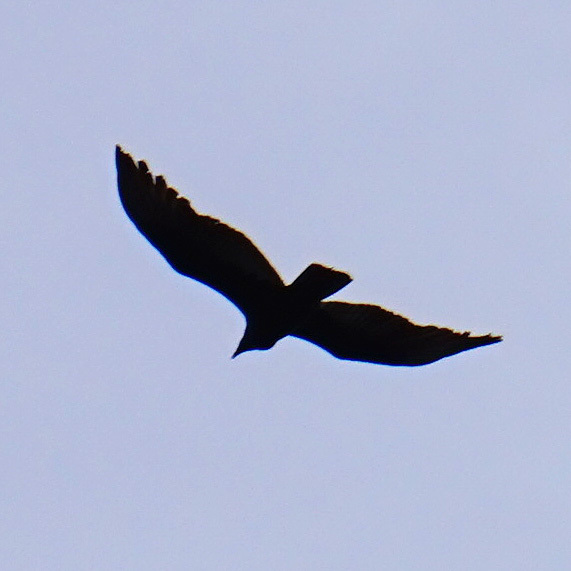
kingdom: Animalia
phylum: Chordata
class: Aves
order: Accipitriformes
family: Cathartidae
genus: Cathartes
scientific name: Cathartes aura
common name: Turkey vulture
